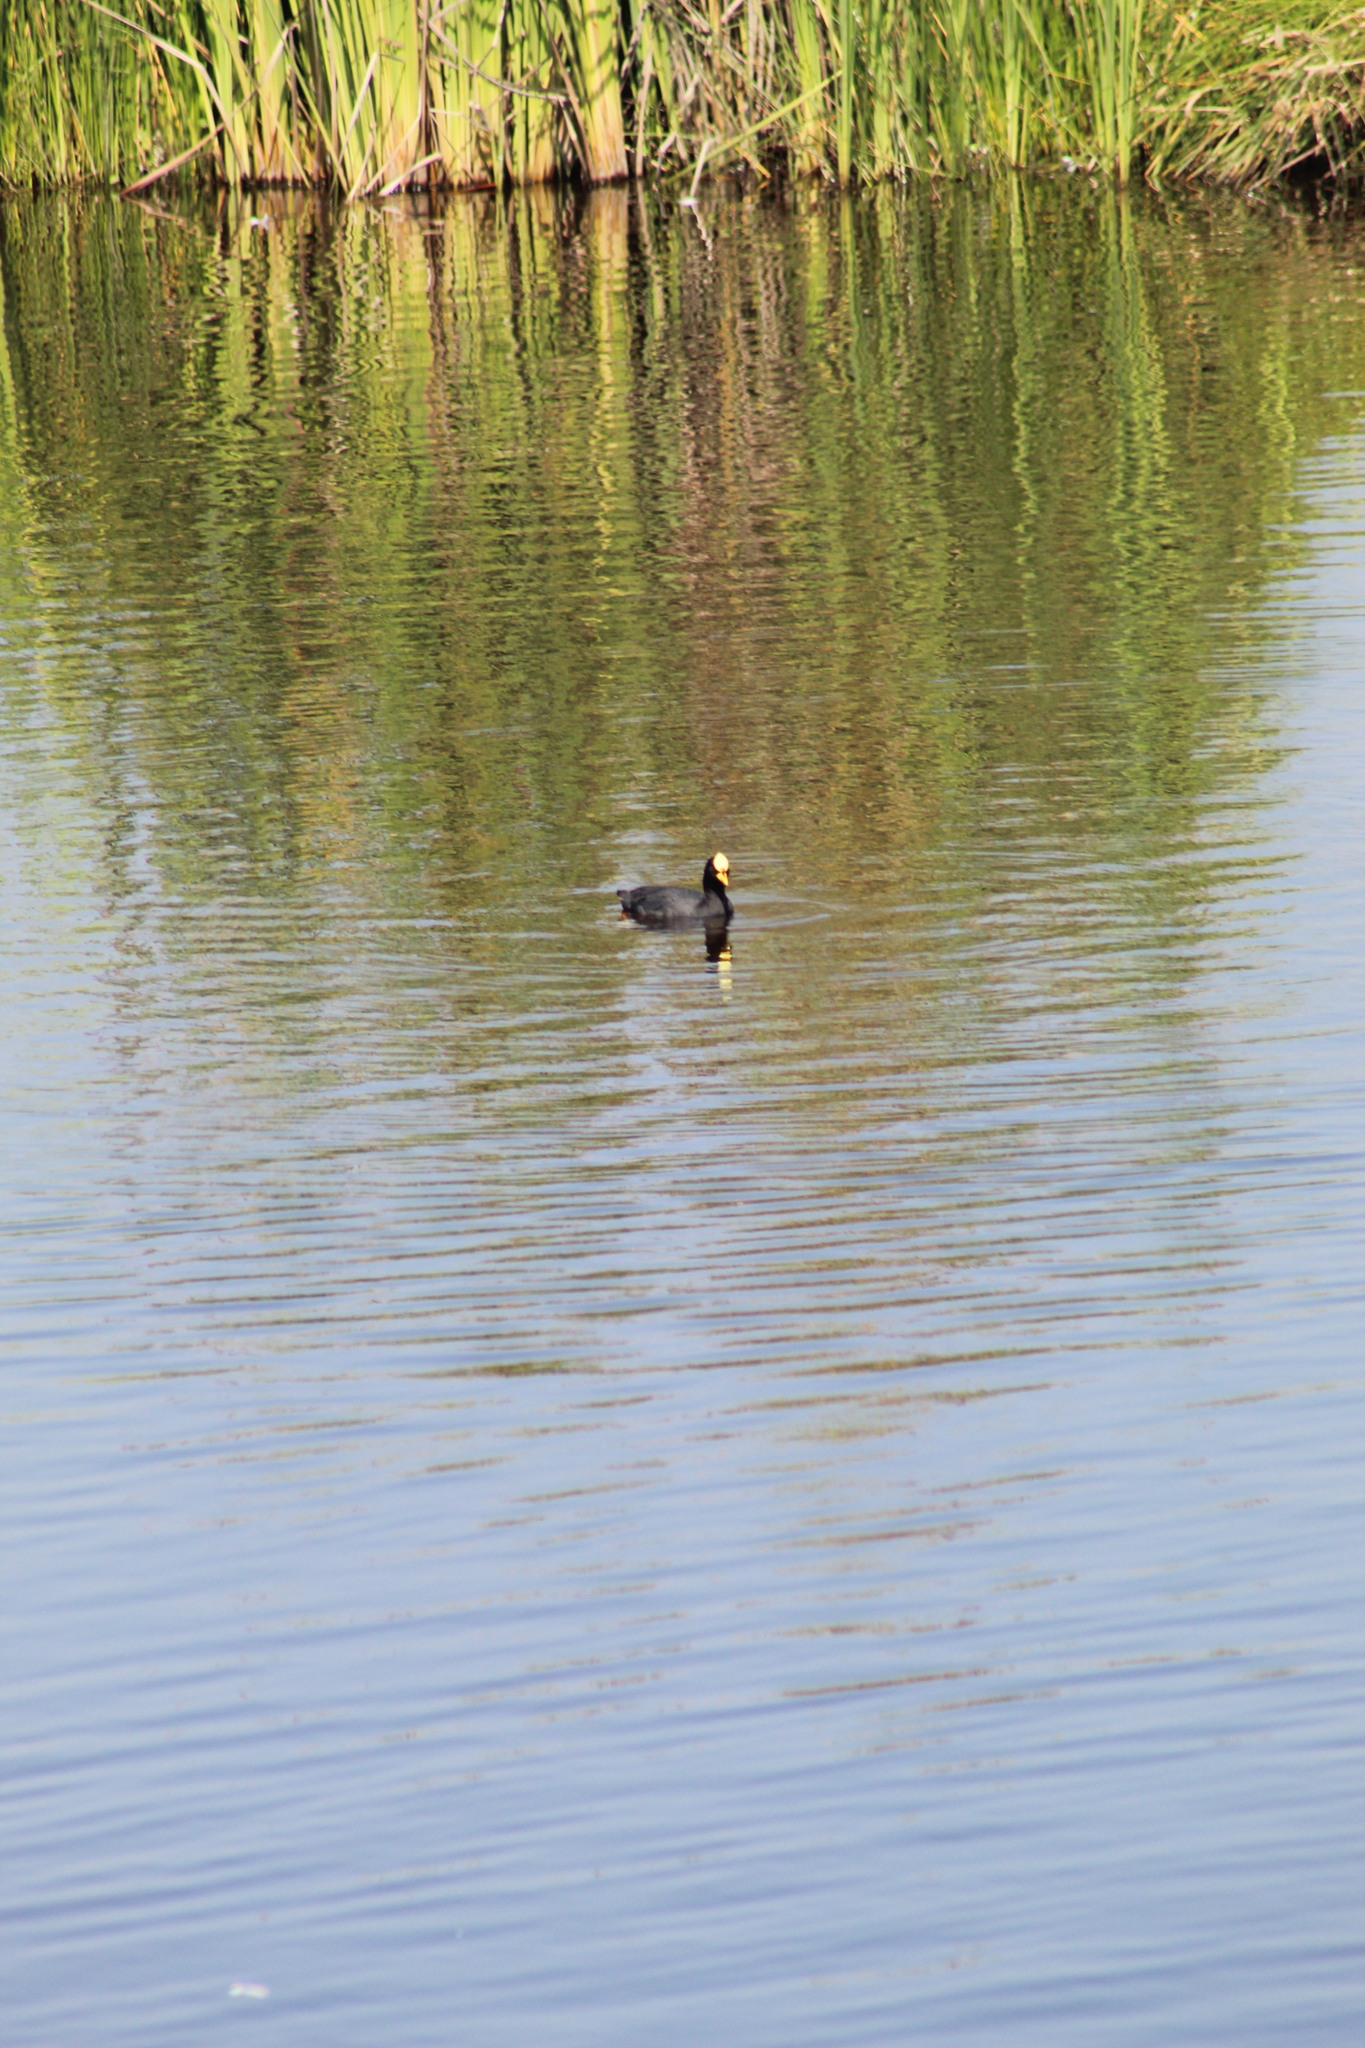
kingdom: Animalia
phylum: Chordata
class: Aves
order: Gruiformes
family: Rallidae
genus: Fulica
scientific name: Fulica armillata
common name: Red-gartered coot
